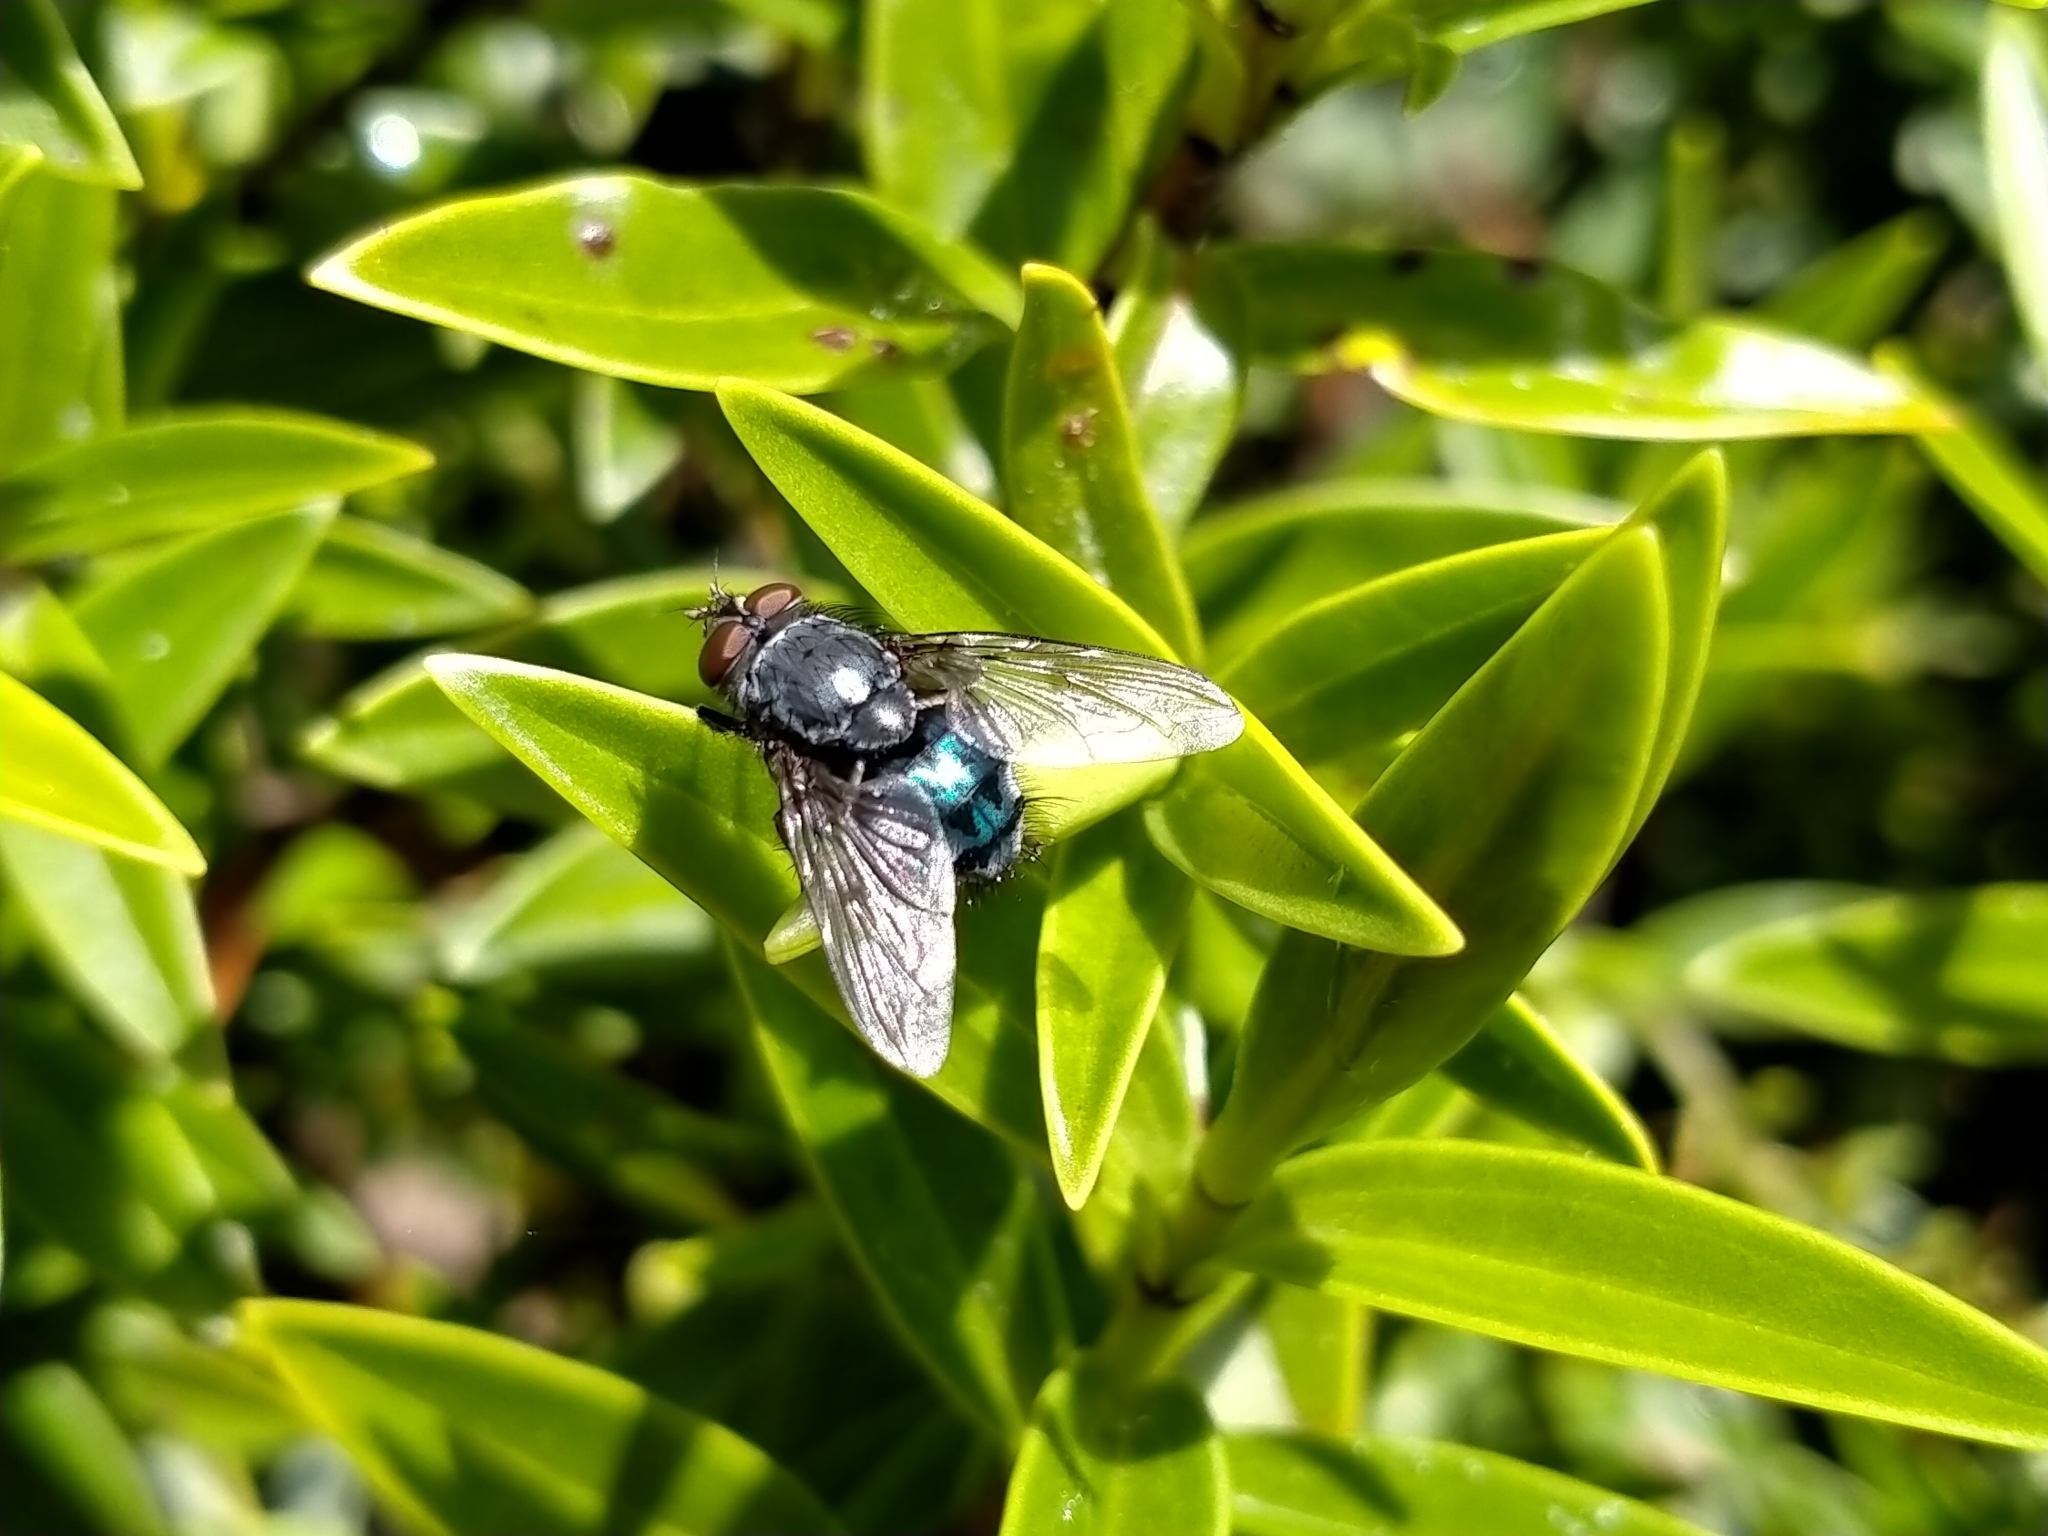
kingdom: Animalia
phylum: Arthropoda
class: Insecta
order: Diptera
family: Calliphoridae
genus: Calliphora
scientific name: Calliphora vicina
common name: Common blow flie
